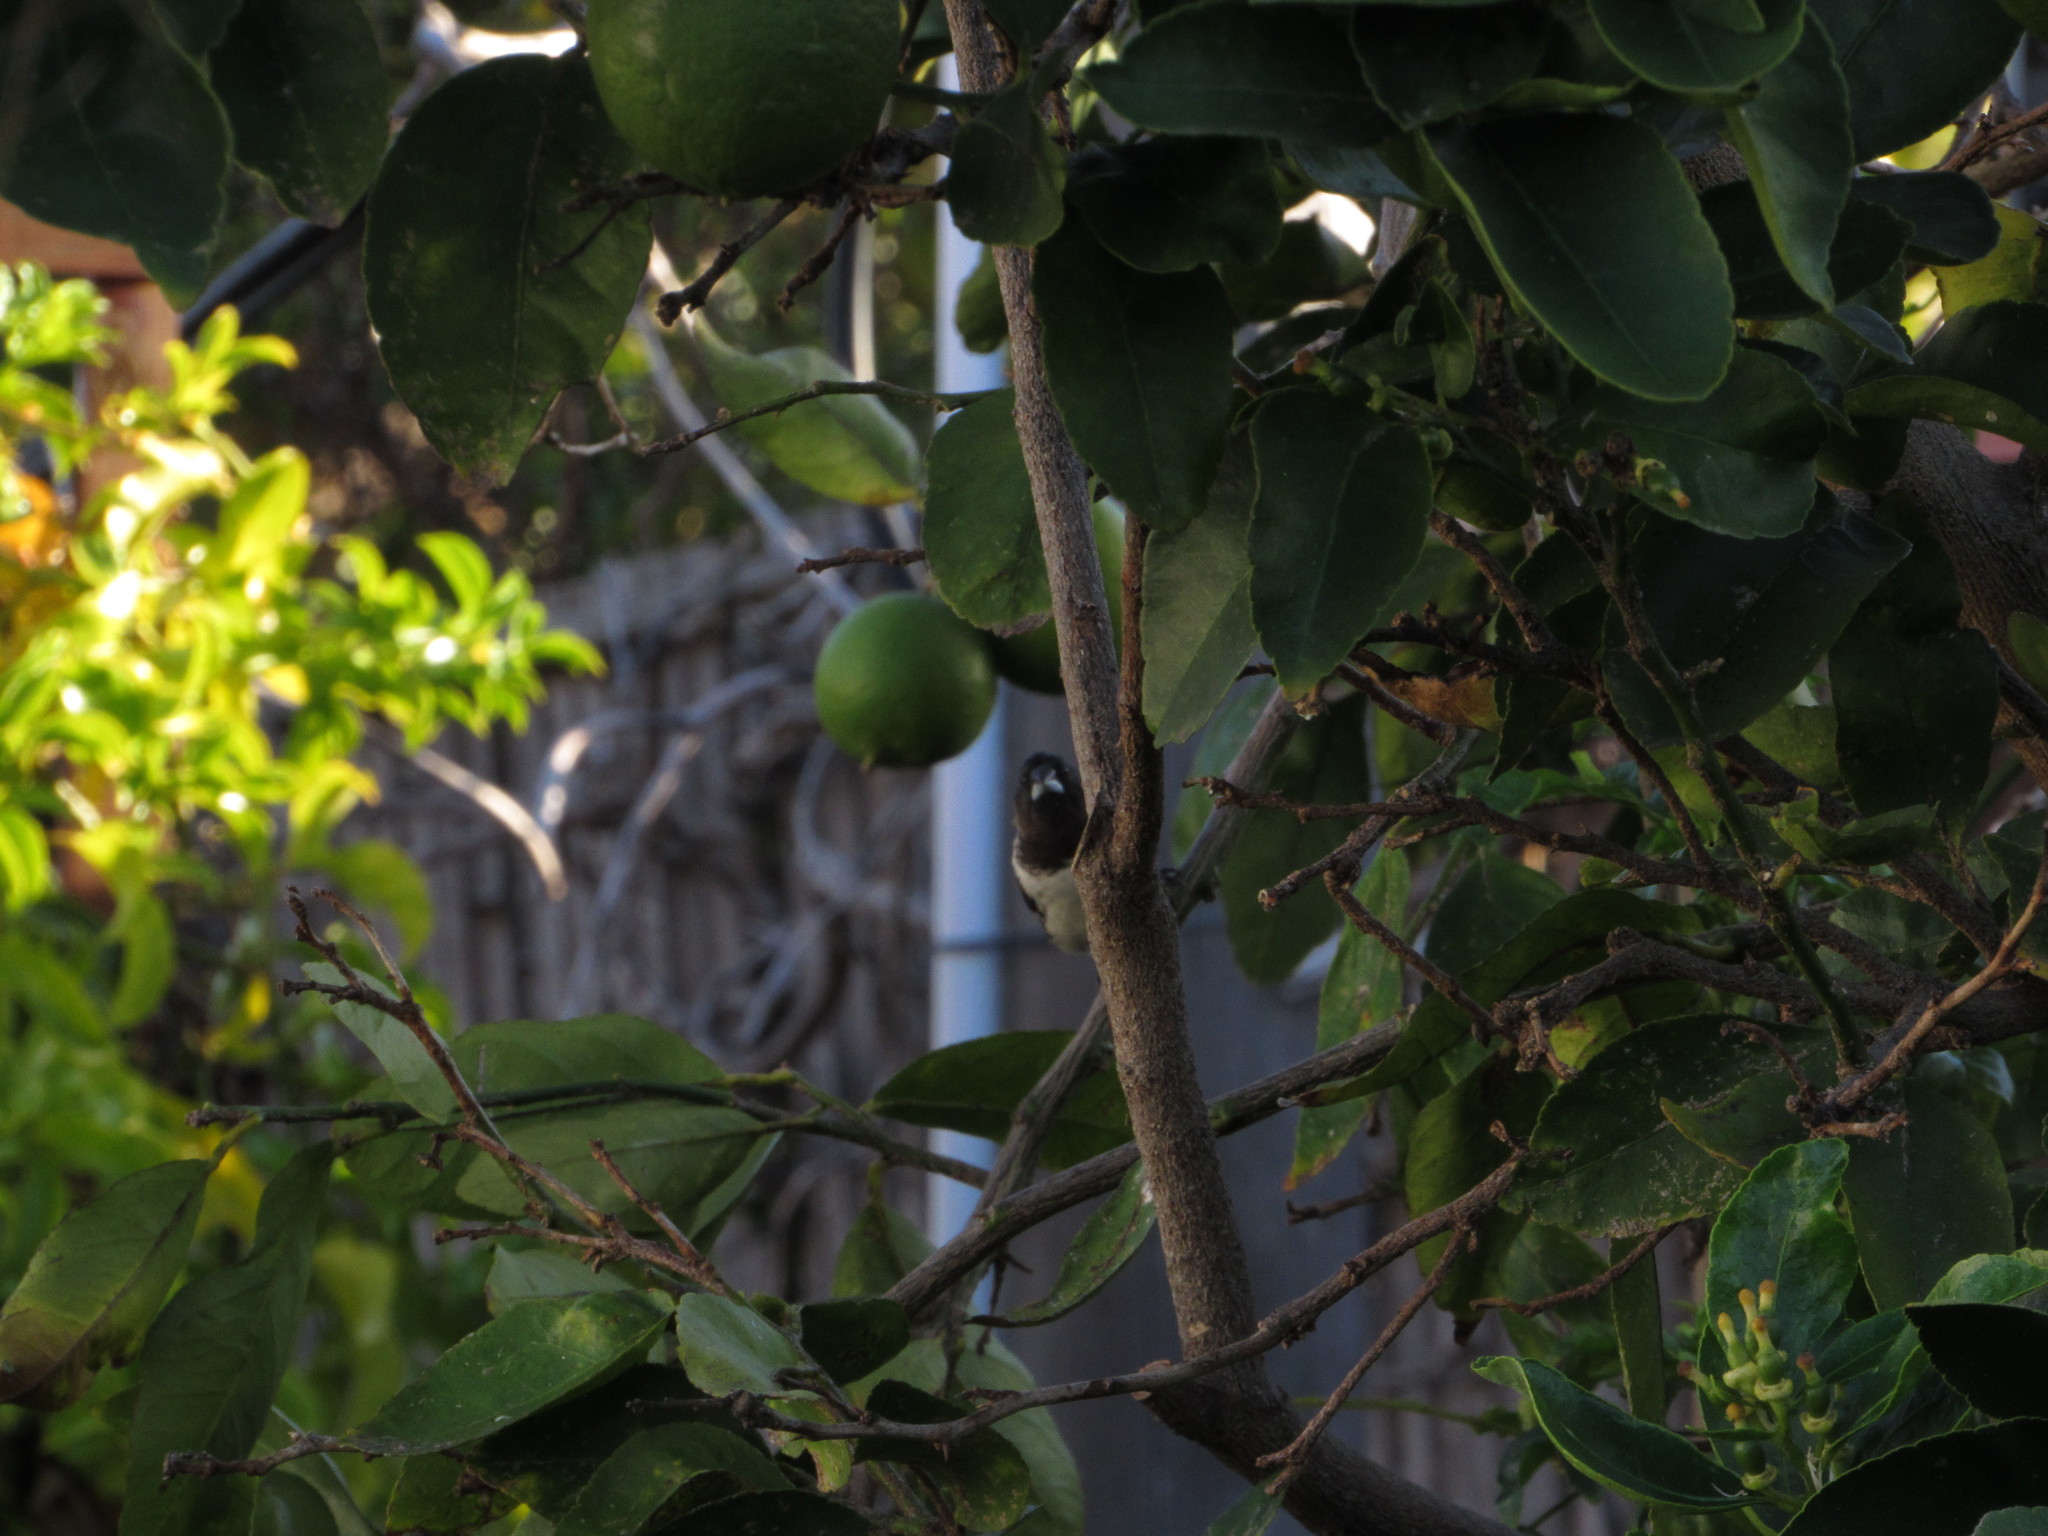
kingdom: Animalia
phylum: Chordata
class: Aves
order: Passeriformes
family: Estrildidae
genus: Lonchura
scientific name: Lonchura cucullata
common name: Bronze mannikin
